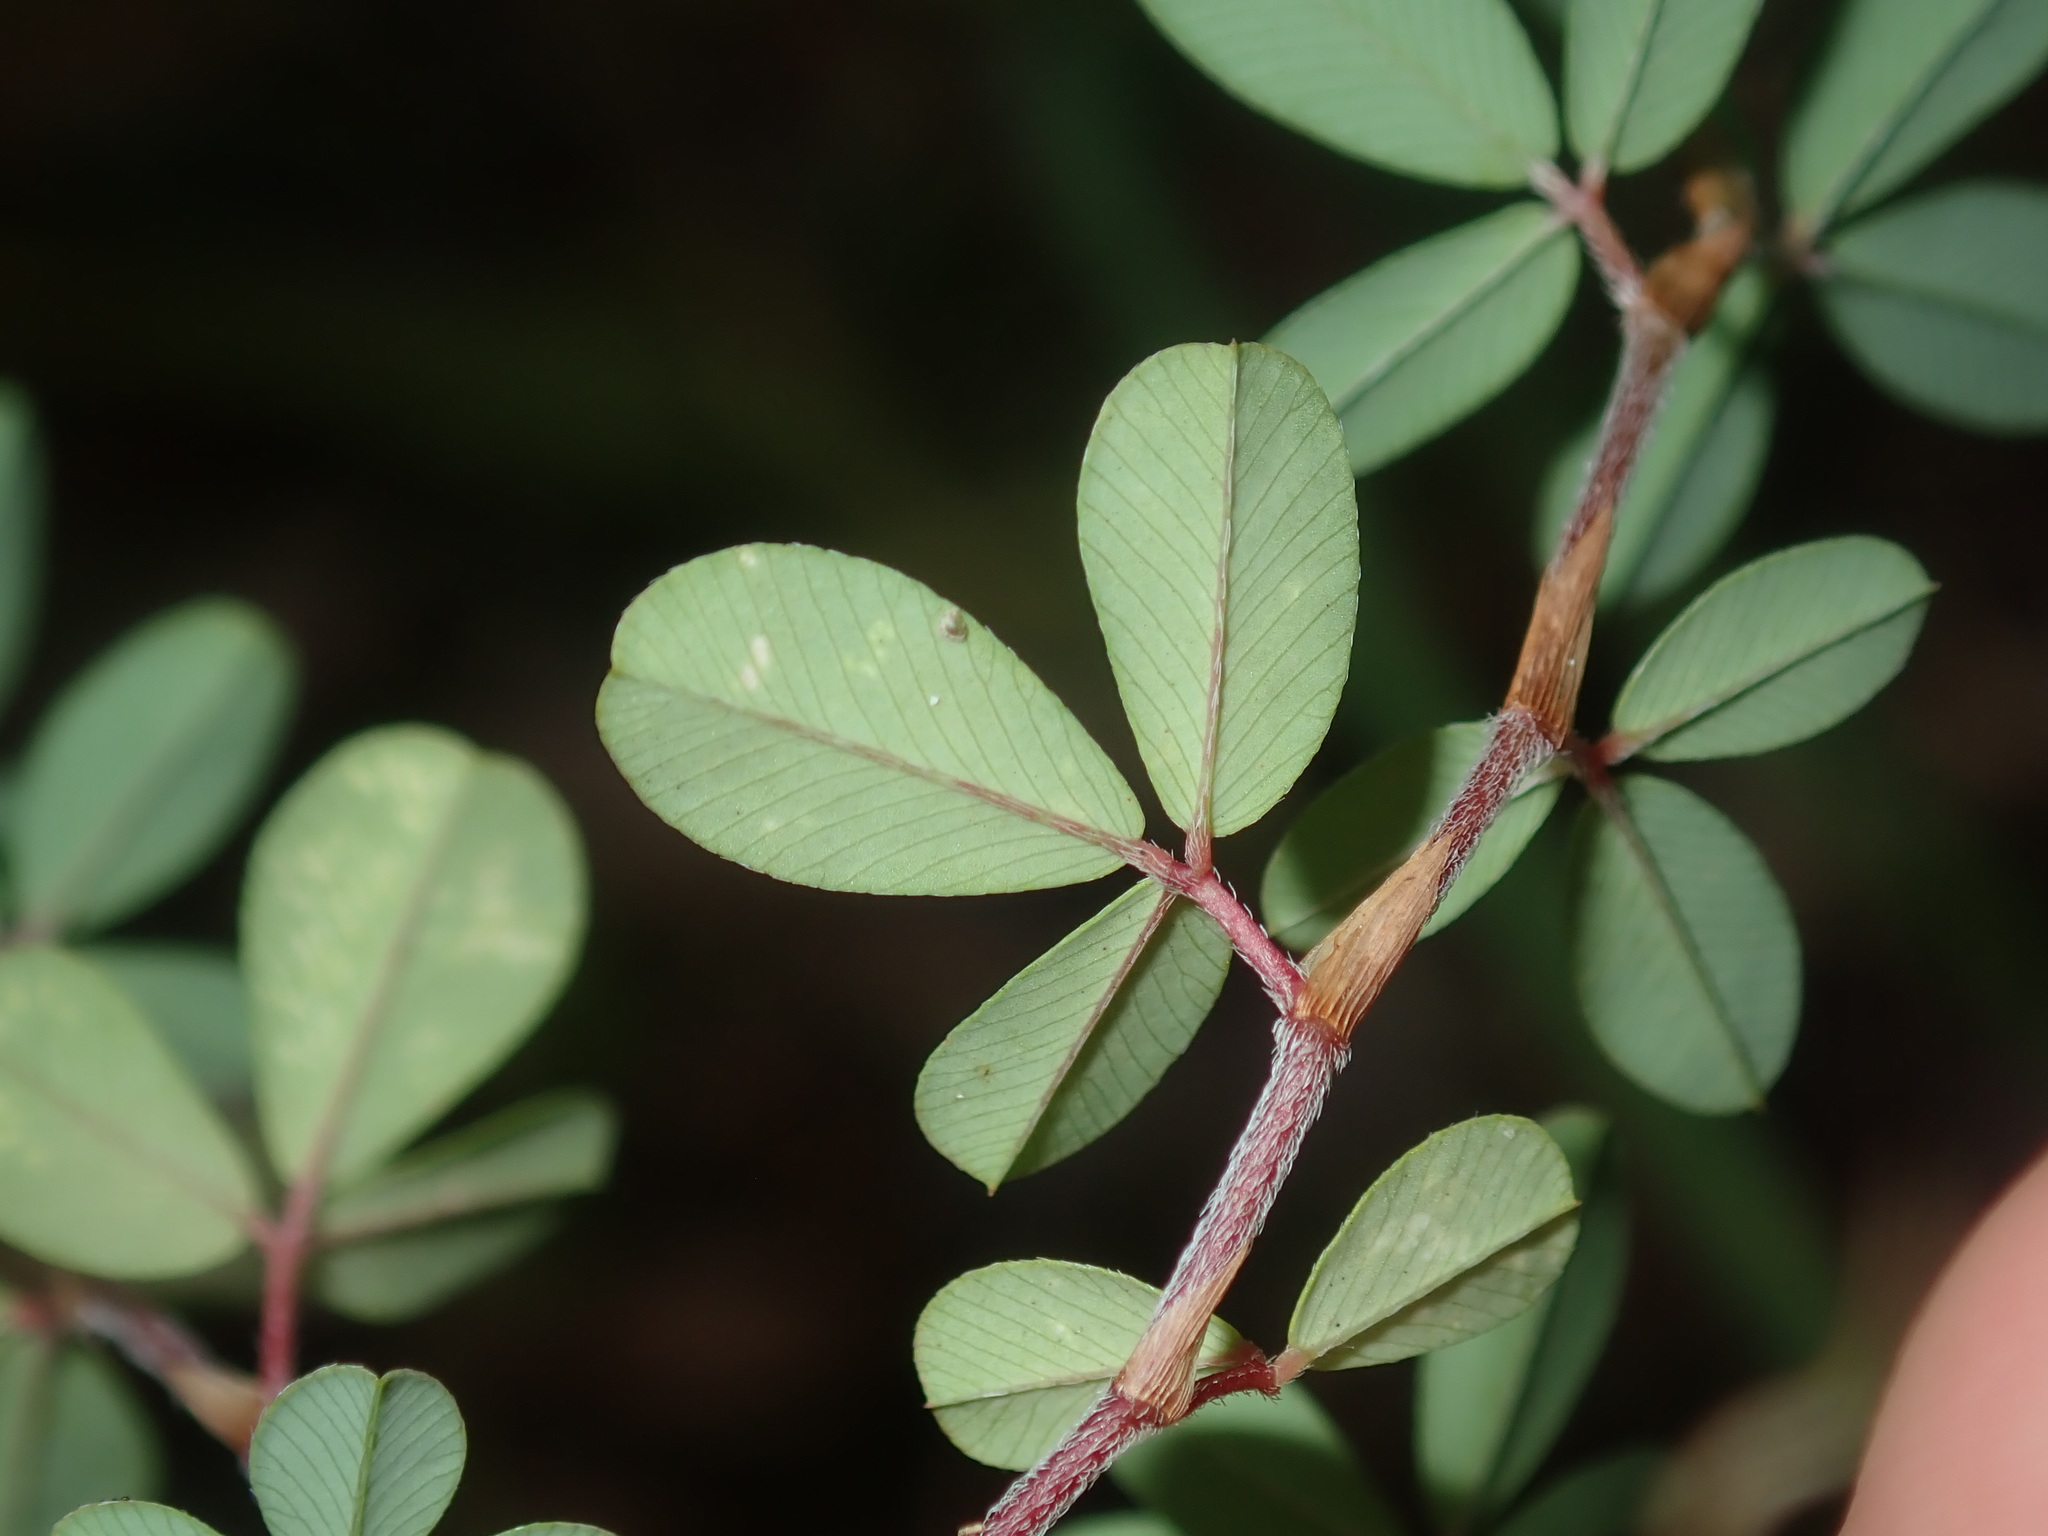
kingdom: Plantae
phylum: Tracheophyta
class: Magnoliopsida
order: Fabales
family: Fabaceae
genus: Kummerowia
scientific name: Kummerowia striata
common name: Japanese clover
